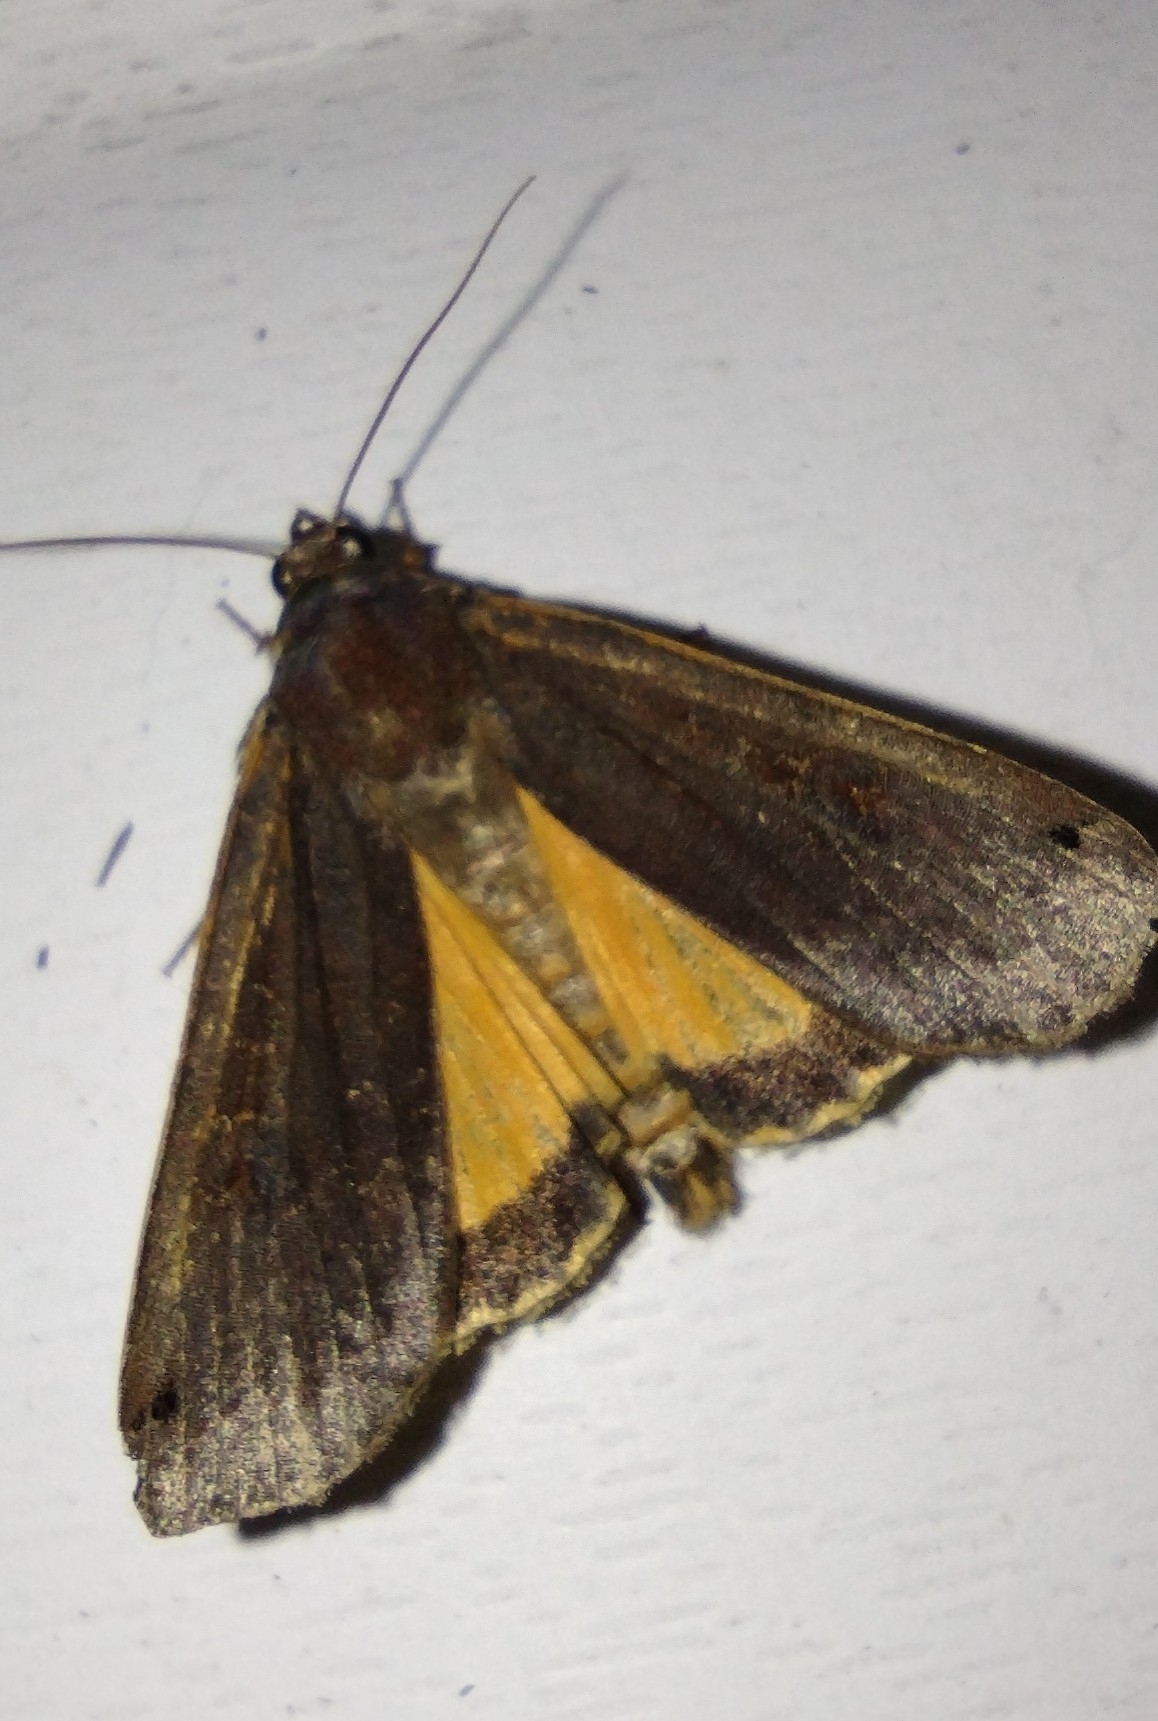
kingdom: Animalia
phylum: Arthropoda
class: Insecta
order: Lepidoptera
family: Noctuidae
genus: Noctua
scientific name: Noctua pronuba
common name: Large yellow underwing
